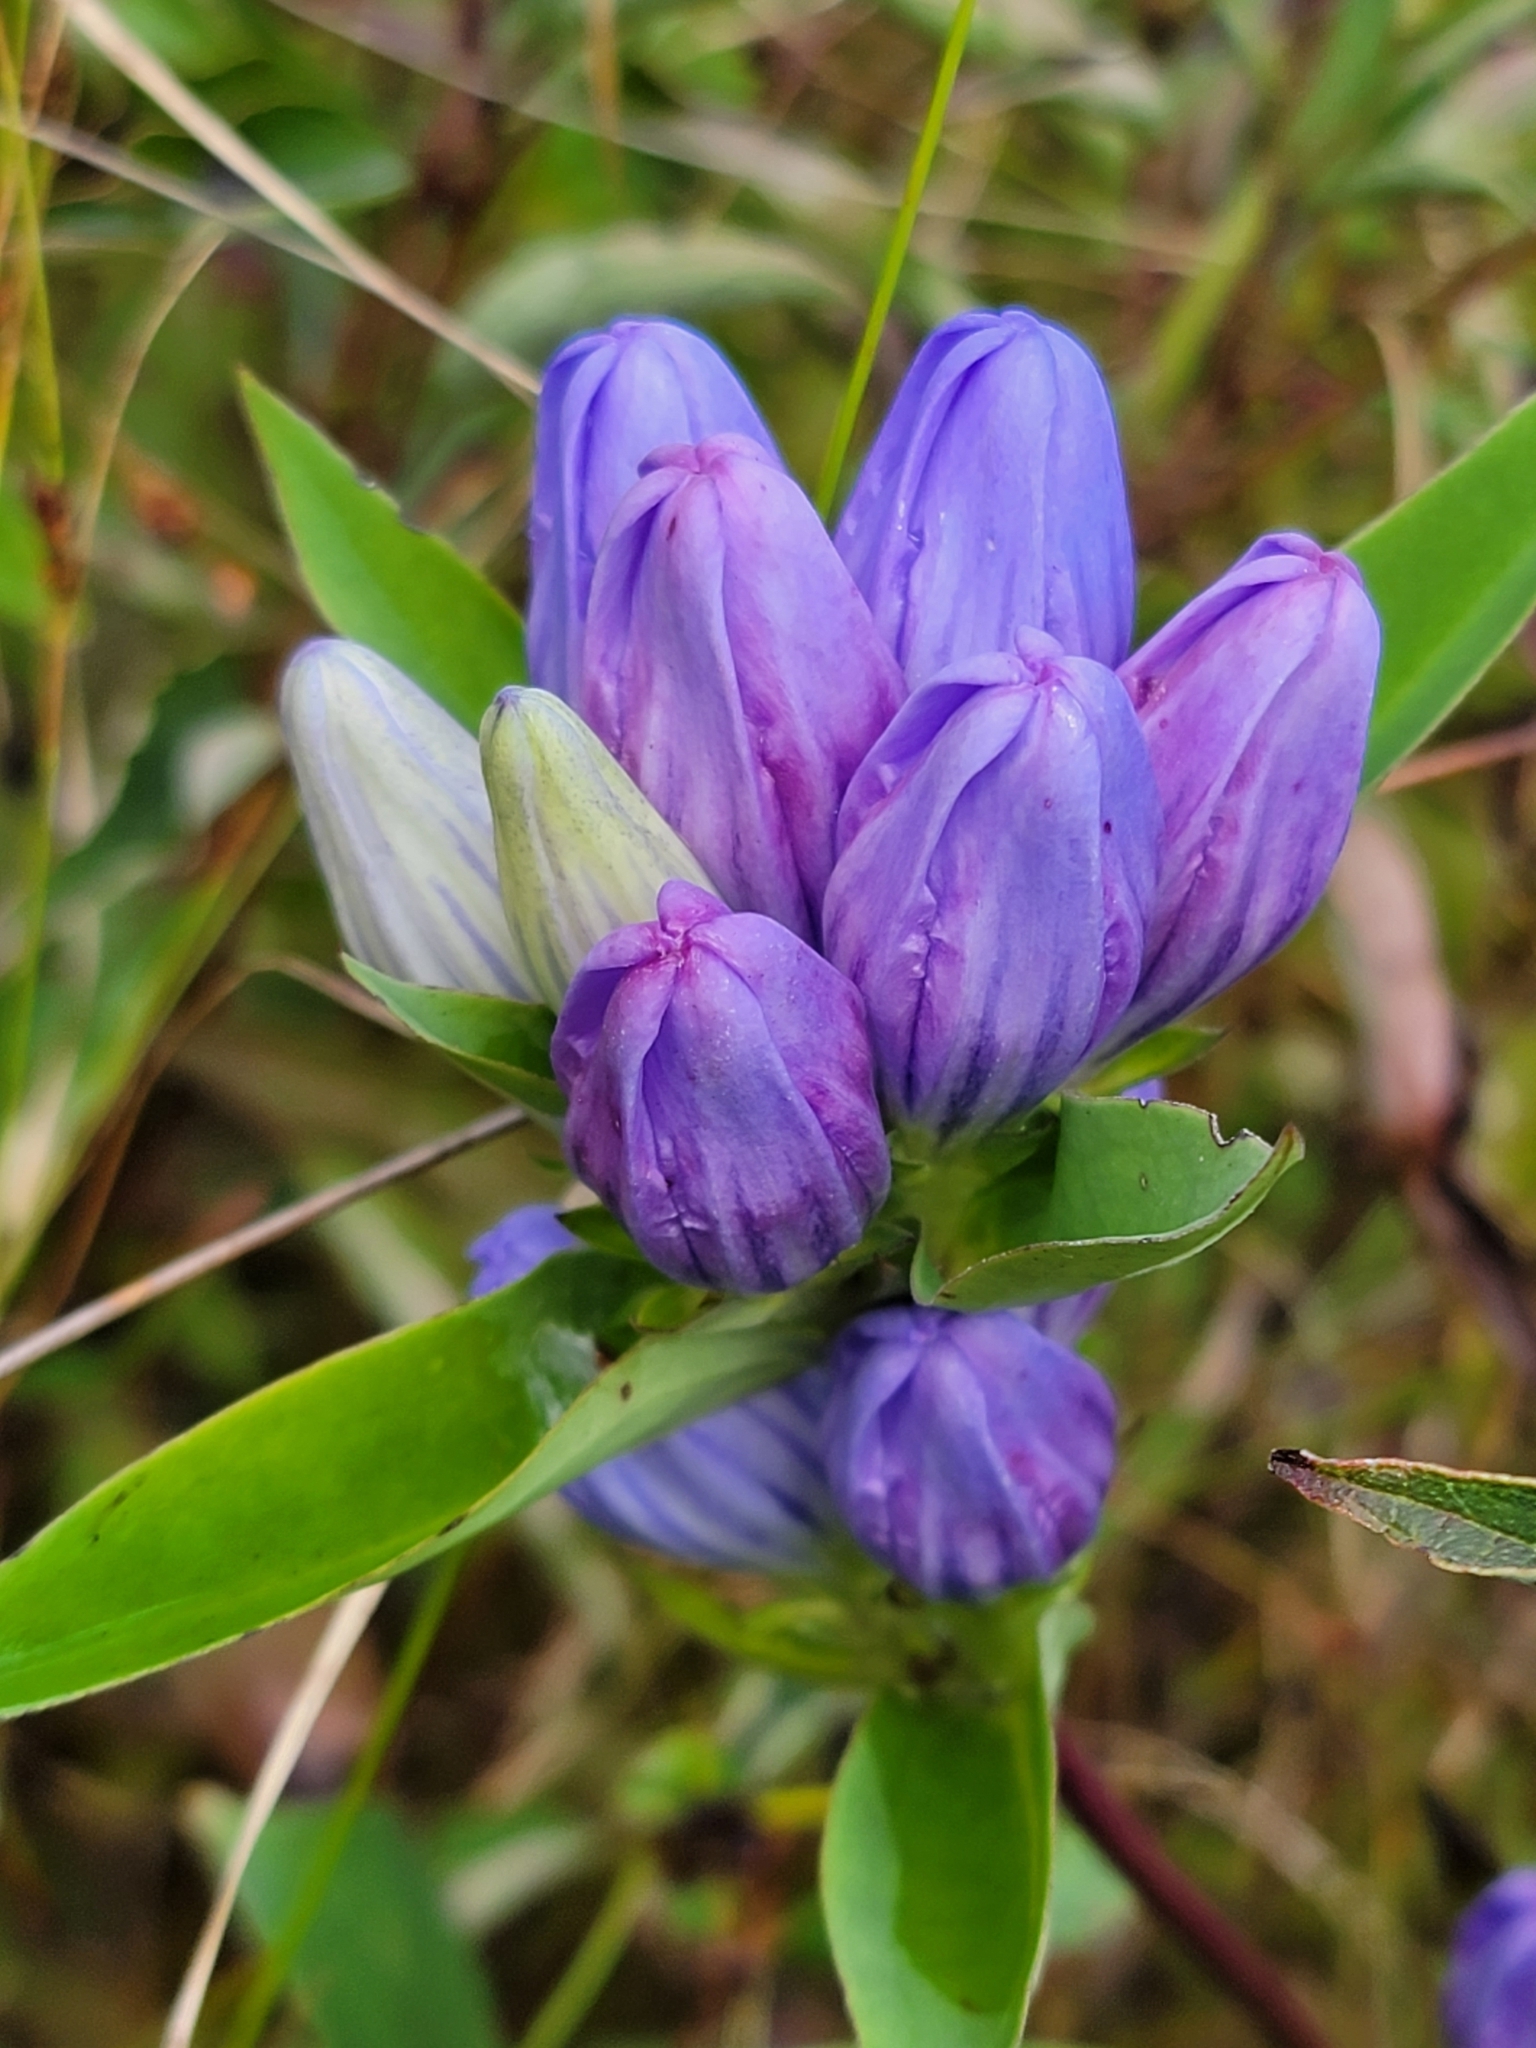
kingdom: Plantae
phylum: Tracheophyta
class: Magnoliopsida
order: Gentianales
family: Gentianaceae
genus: Gentiana
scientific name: Gentiana saponaria
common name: Soapwort gentian
